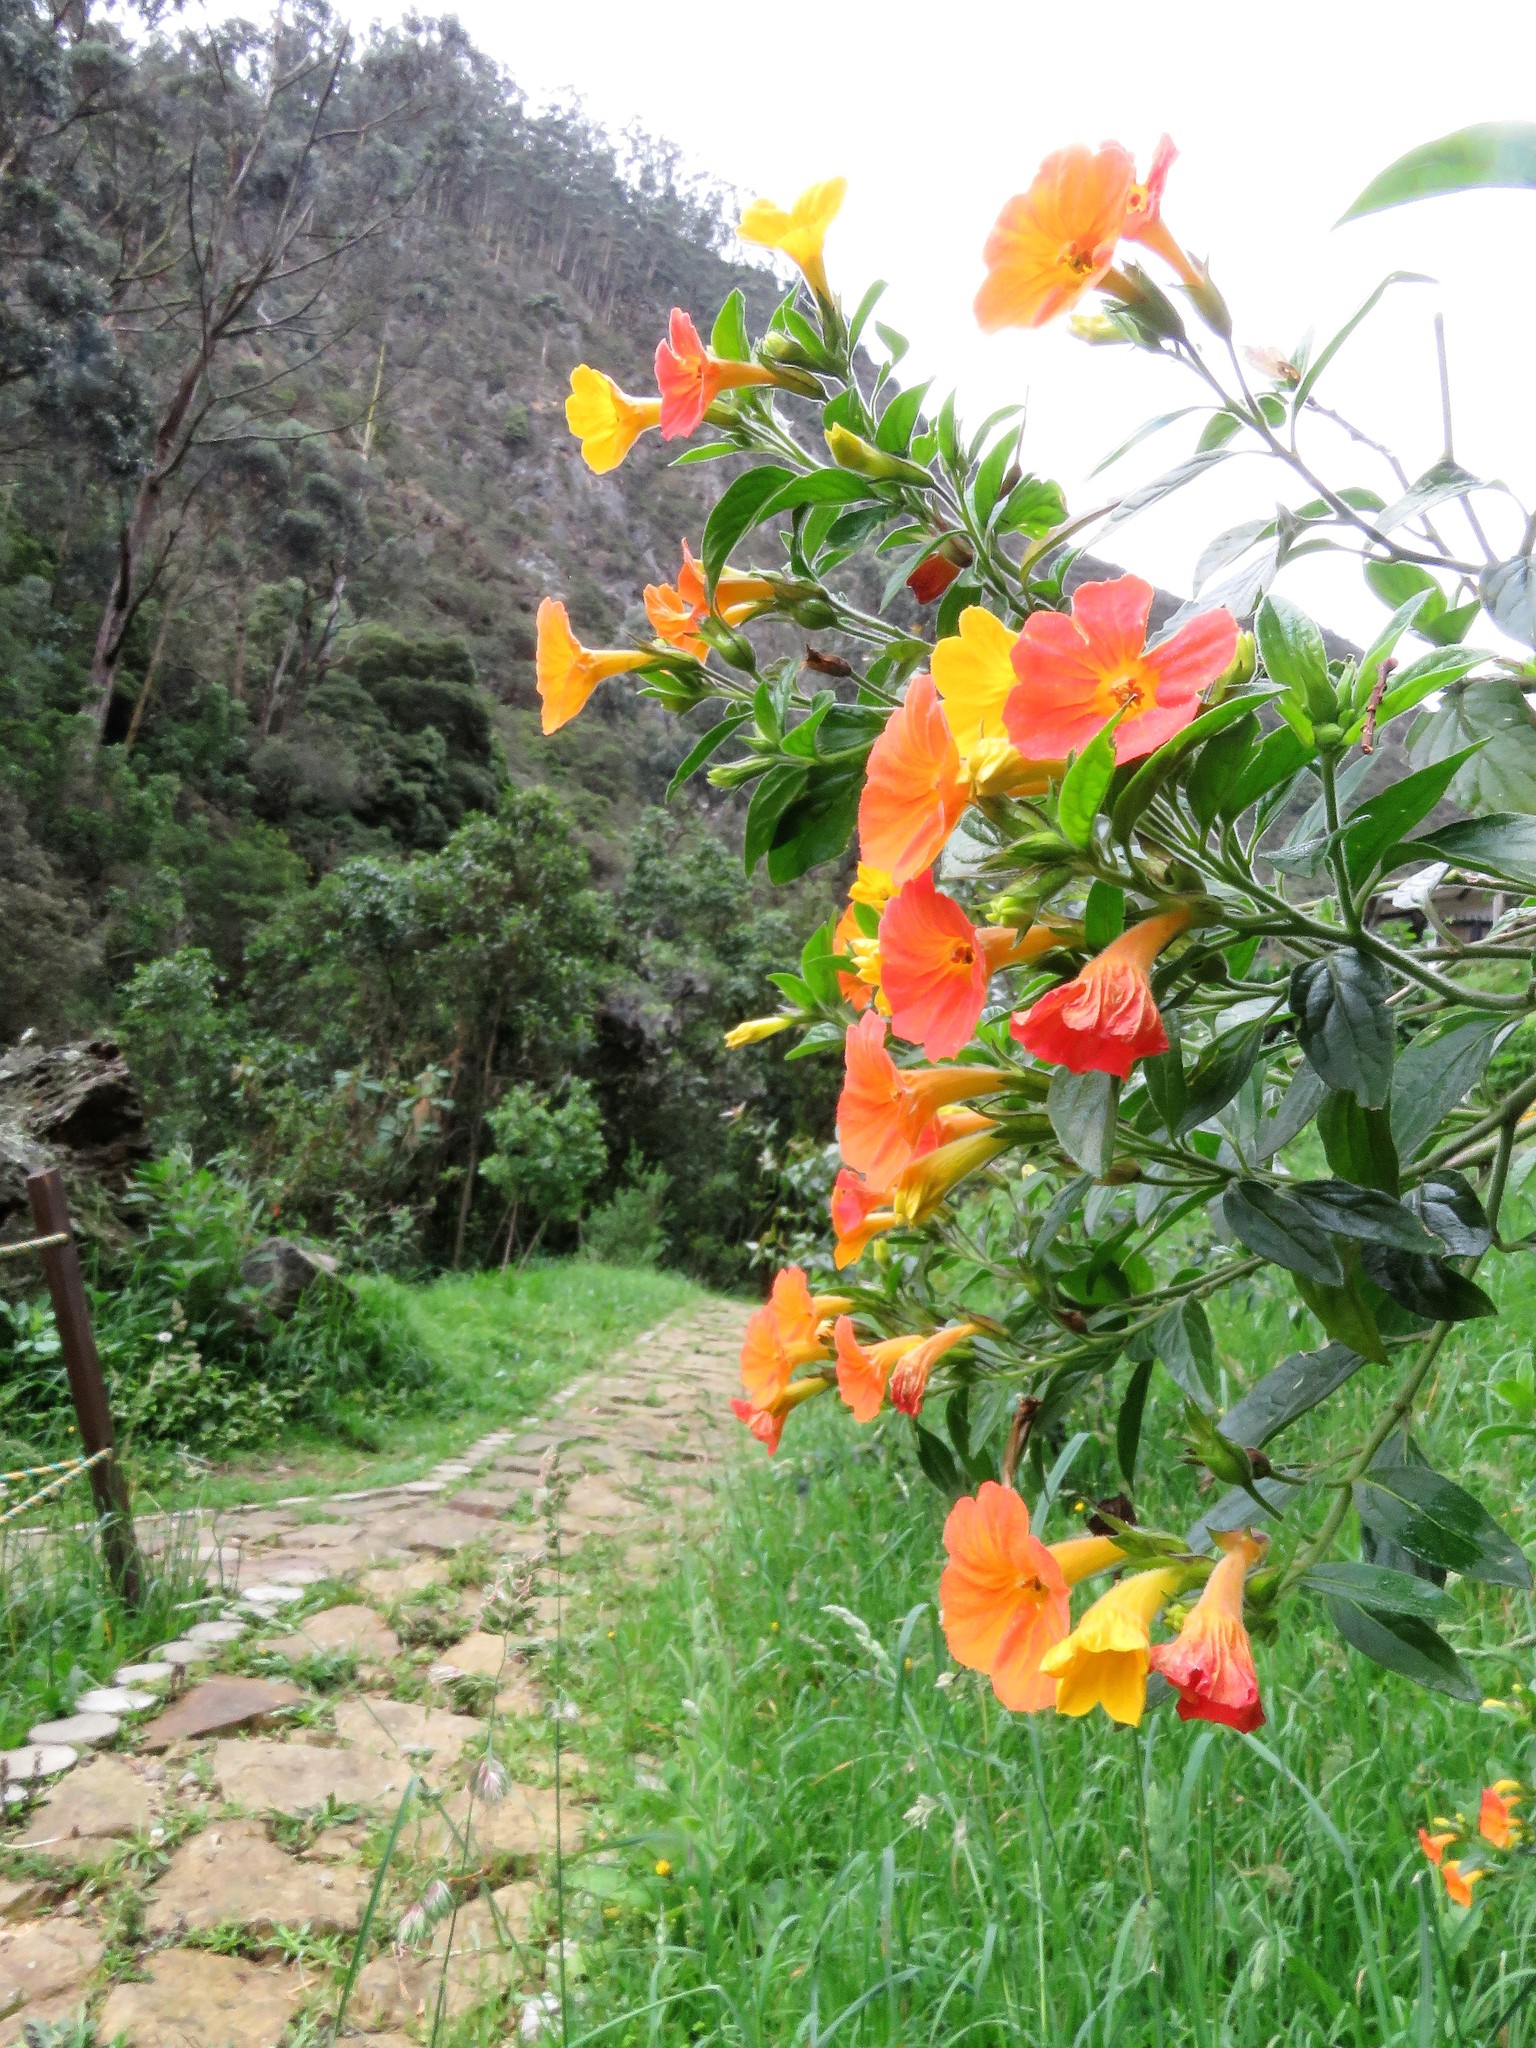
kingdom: Plantae
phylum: Tracheophyta
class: Magnoliopsida
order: Solanales
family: Solanaceae
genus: Streptosolen
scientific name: Streptosolen jamesonii
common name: Marmalade bush
